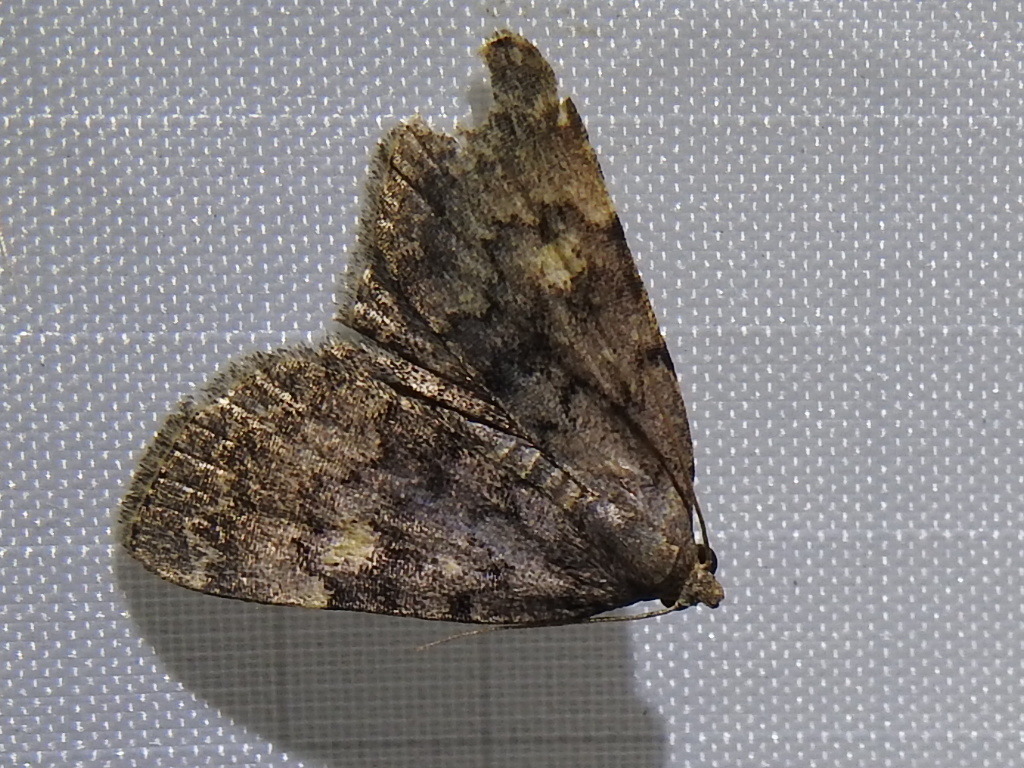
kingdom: Animalia
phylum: Arthropoda
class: Insecta
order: Lepidoptera
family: Erebidae
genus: Idia
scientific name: Idia aemula
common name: Common idia moth
